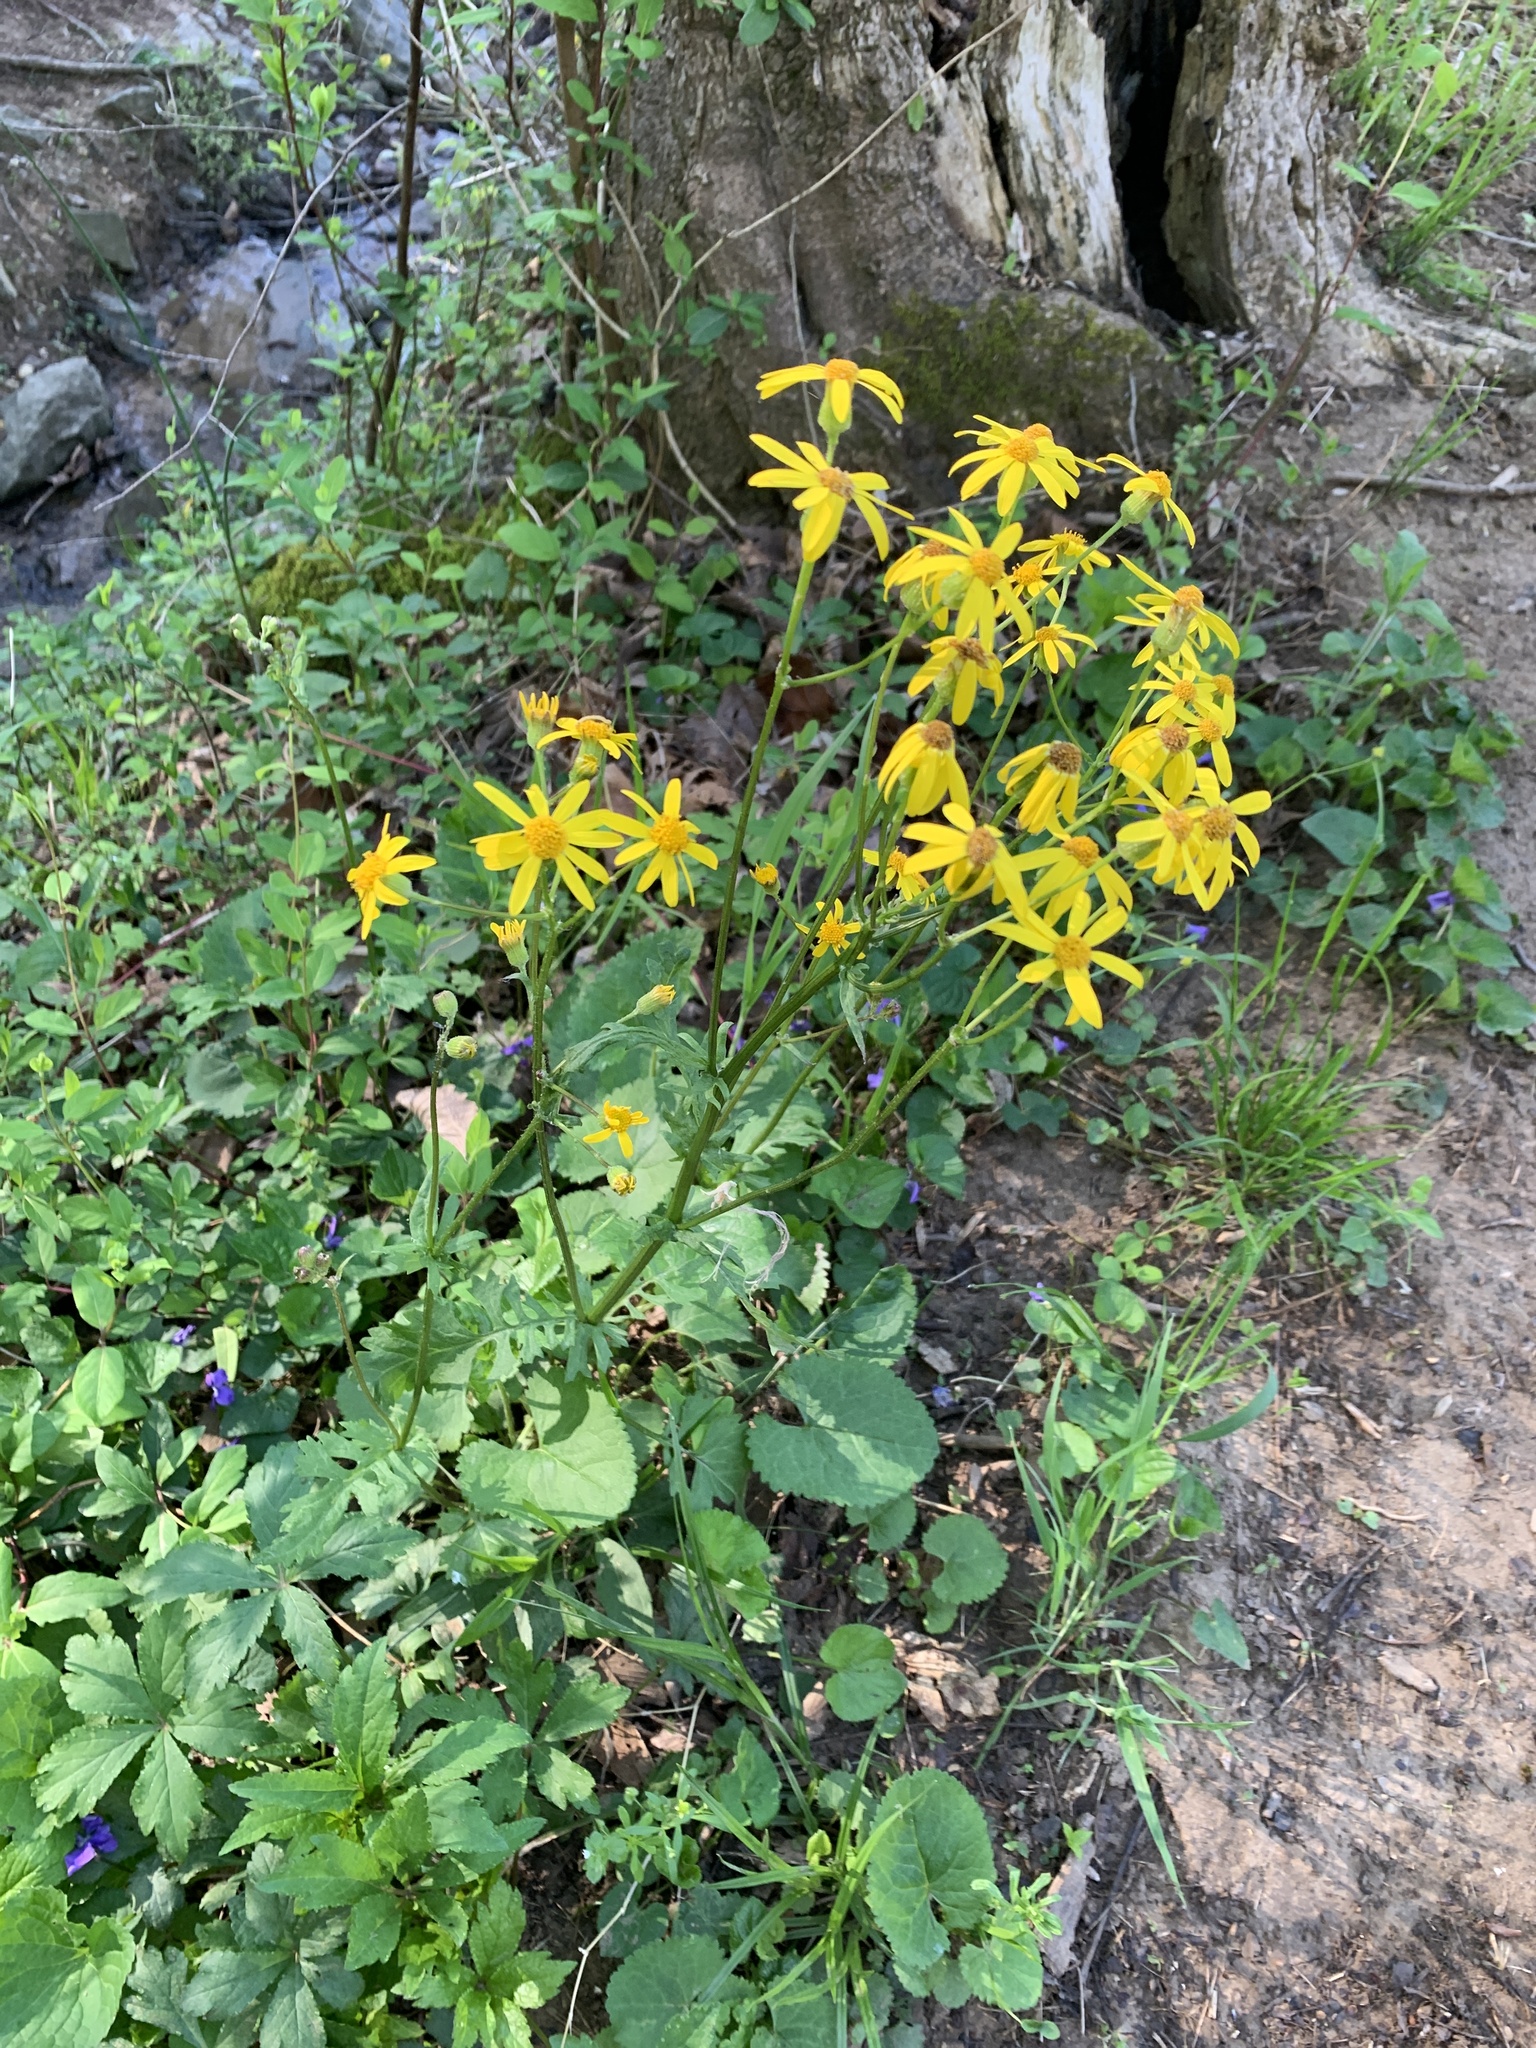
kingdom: Plantae
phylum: Tracheophyta
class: Magnoliopsida
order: Asterales
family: Asteraceae
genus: Packera
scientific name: Packera aurea
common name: Golden groundsel
